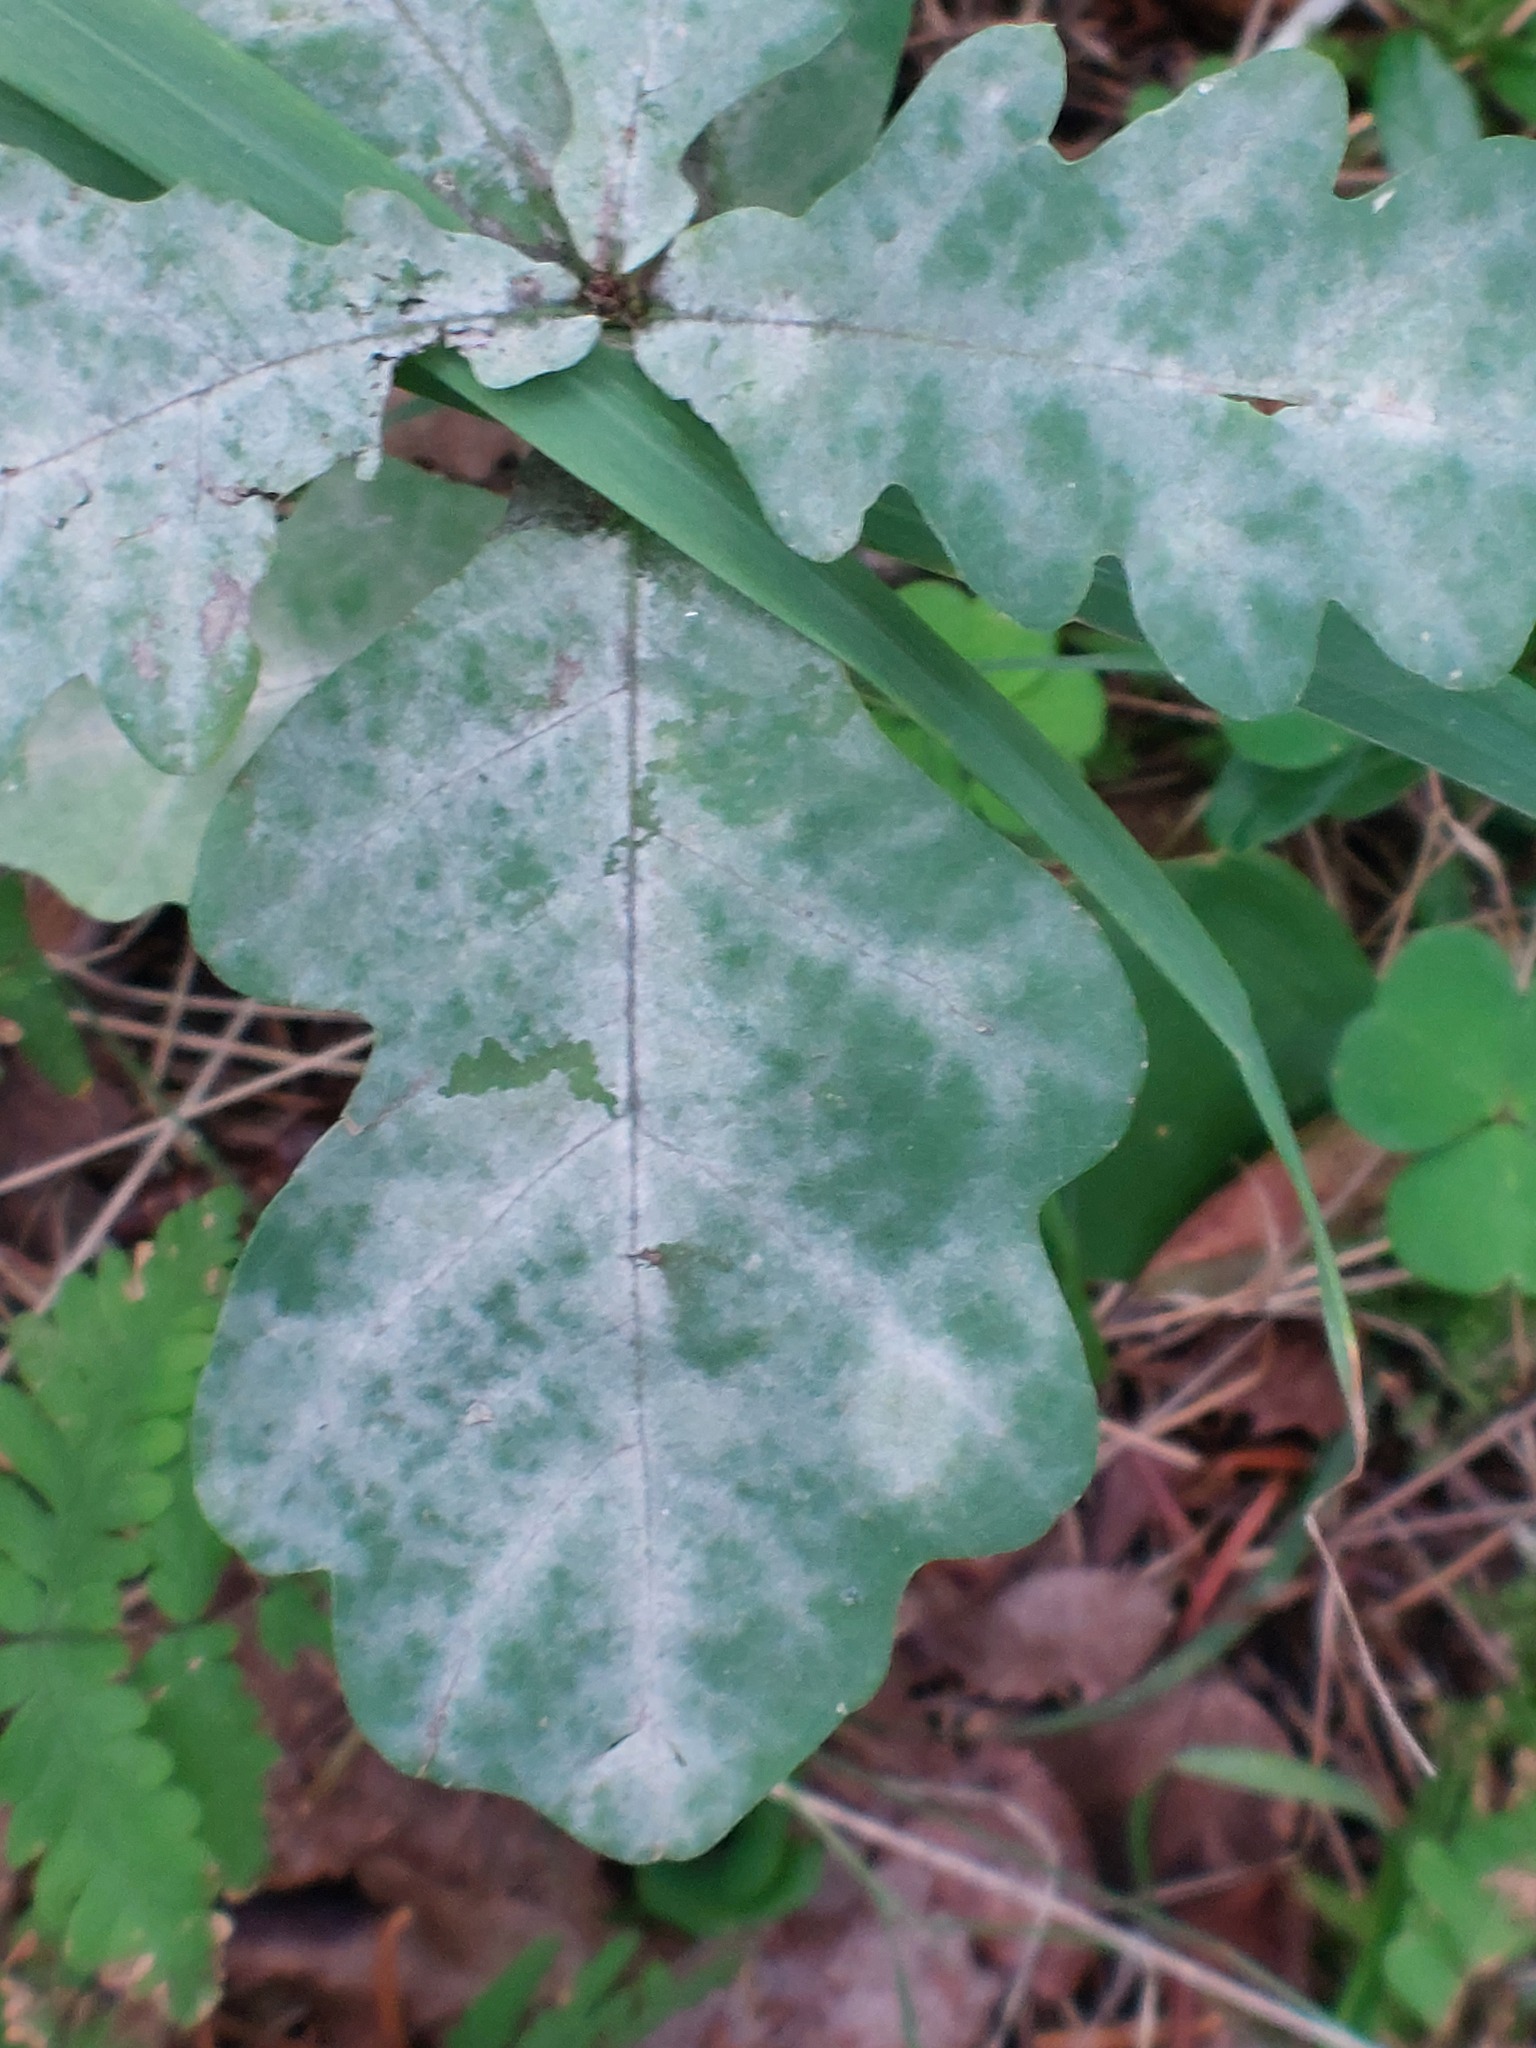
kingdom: Fungi
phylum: Ascomycota
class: Leotiomycetes
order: Helotiales
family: Erysiphaceae
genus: Erysiphe
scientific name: Erysiphe alphitoides
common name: Oak mildew
